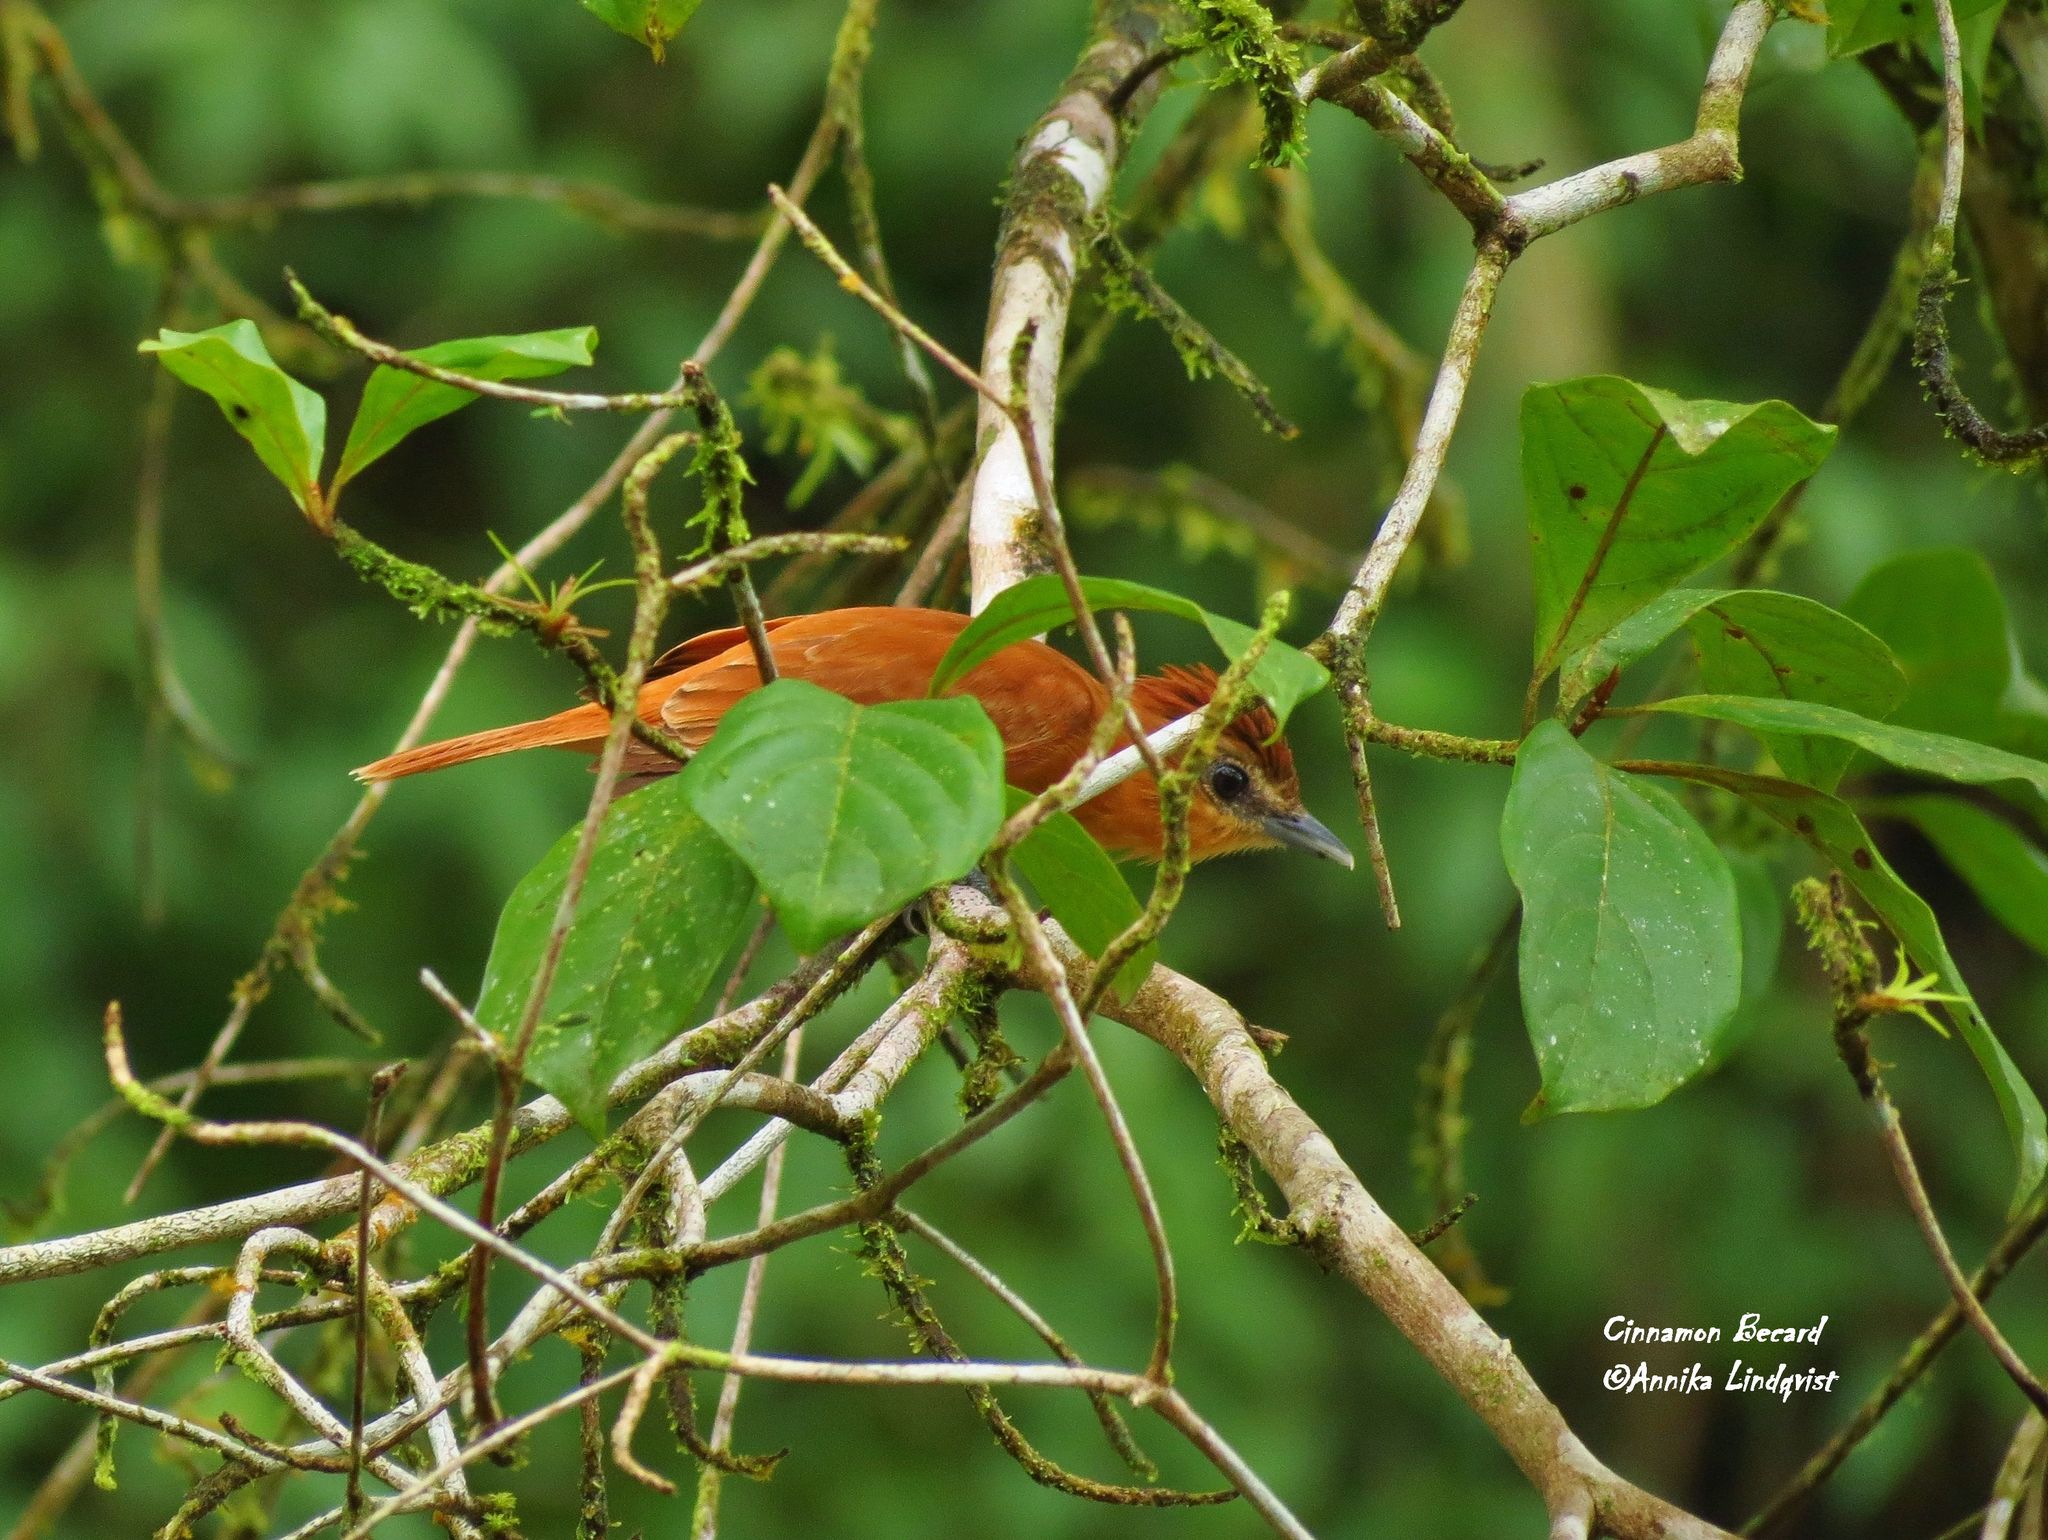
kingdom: Animalia
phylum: Chordata
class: Aves
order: Passeriformes
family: Cotingidae
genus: Pachyramphus
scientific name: Pachyramphus cinnamomeus
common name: Cinnamon becard
